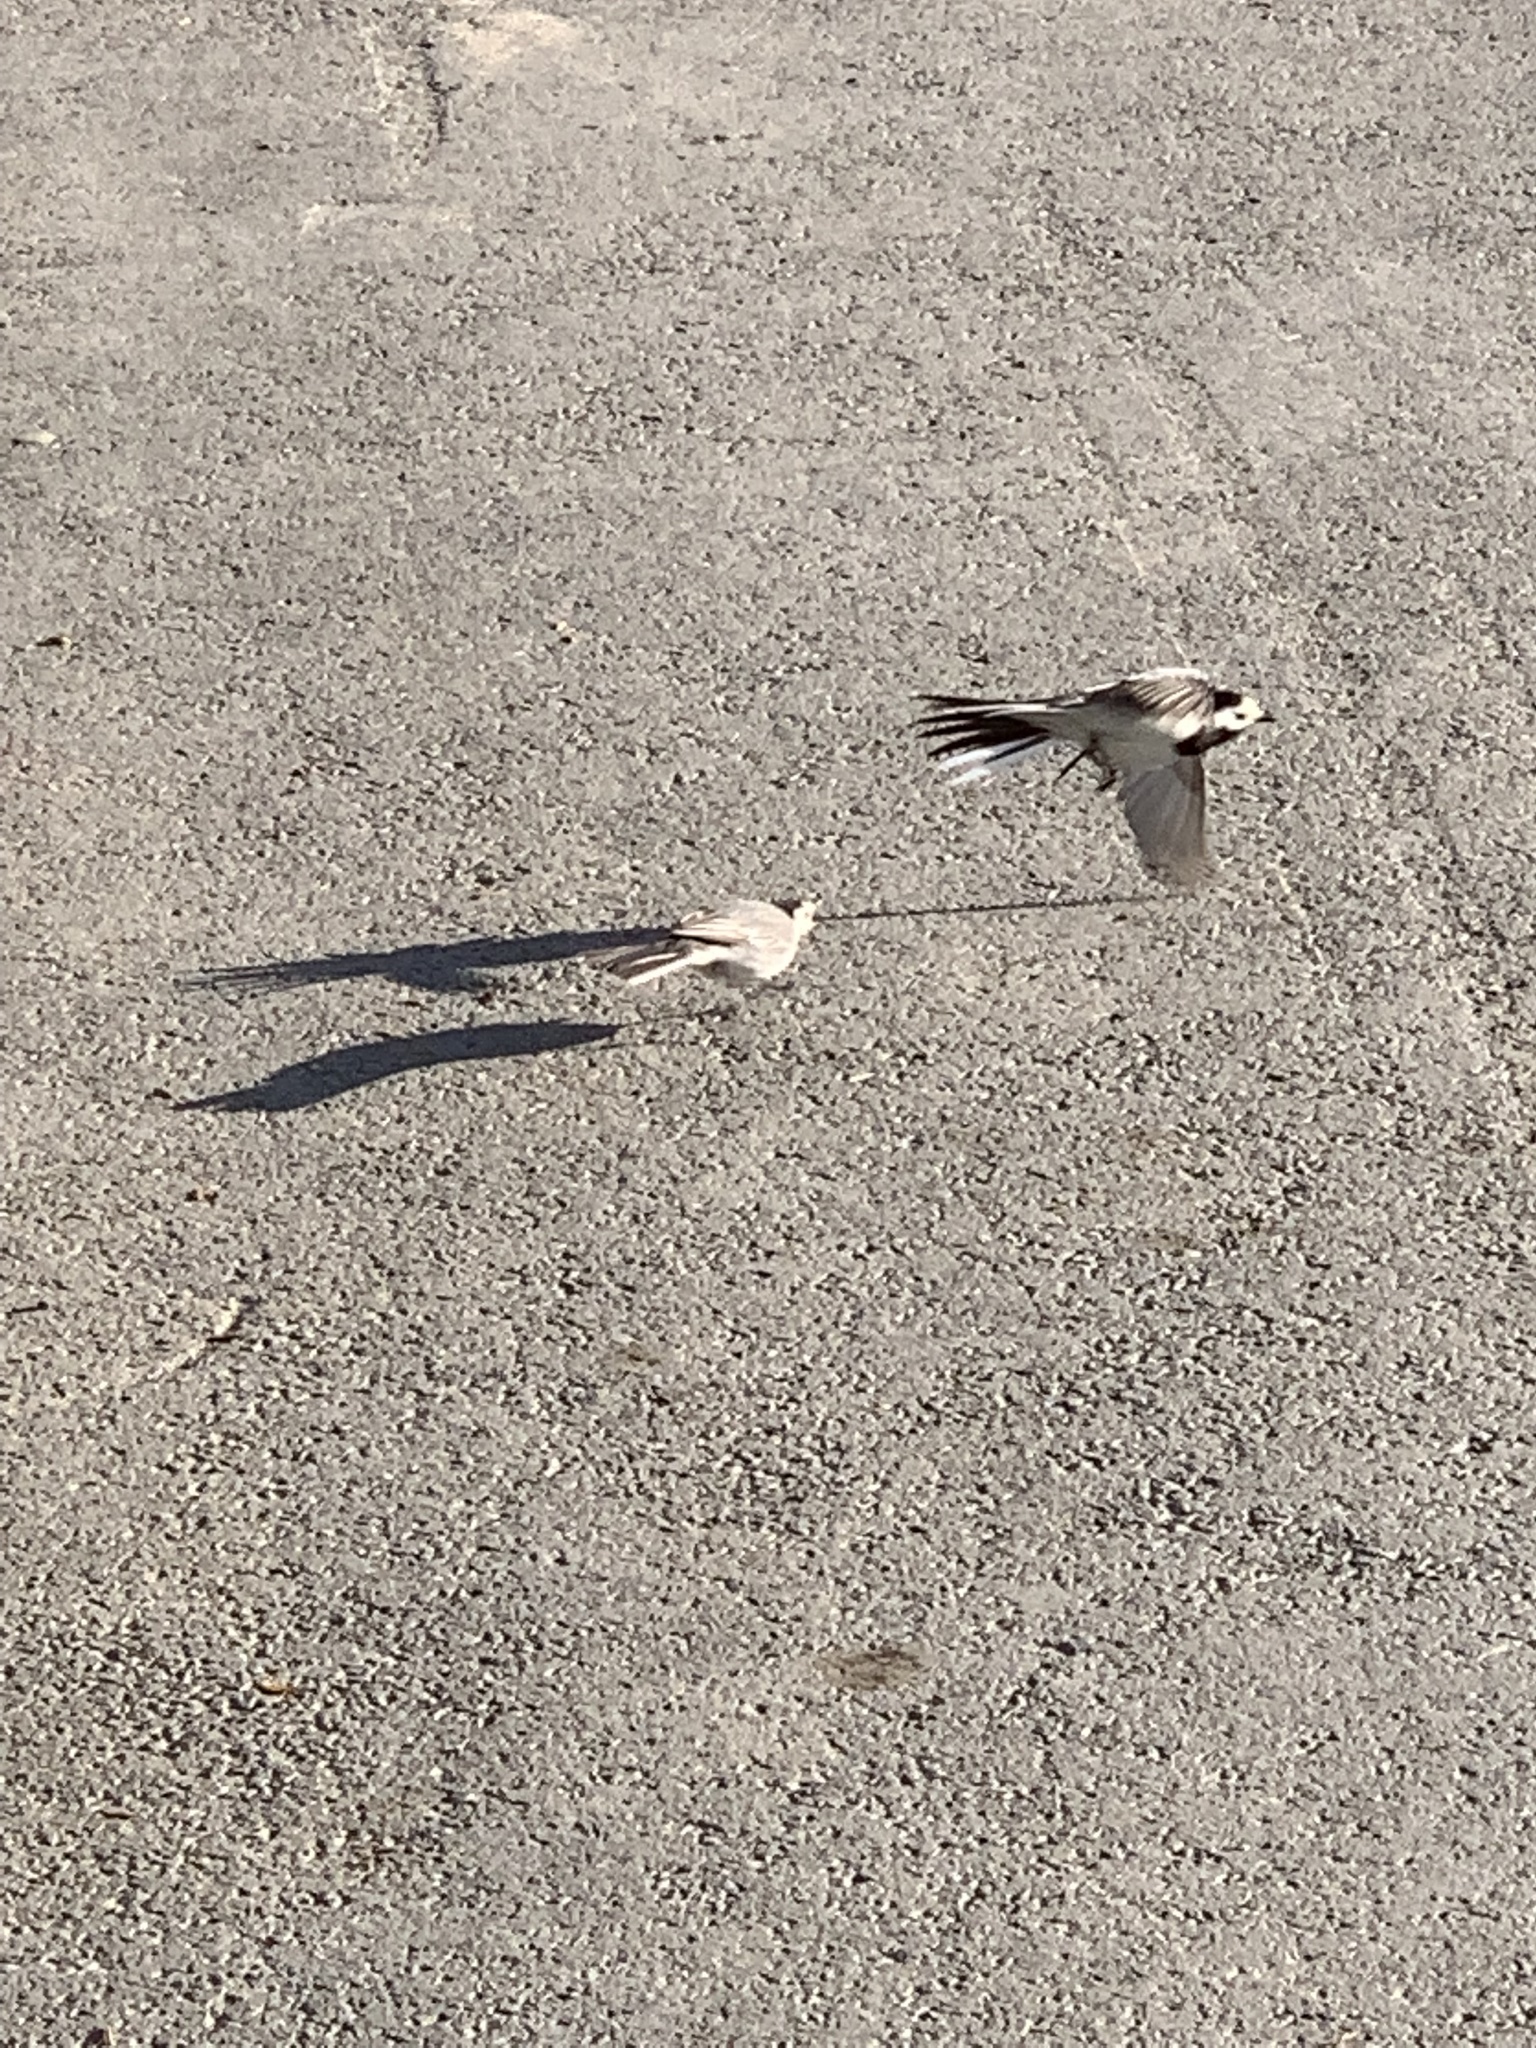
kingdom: Animalia
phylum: Chordata
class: Aves
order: Passeriformes
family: Motacillidae
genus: Motacilla
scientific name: Motacilla alba
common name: White wagtail
